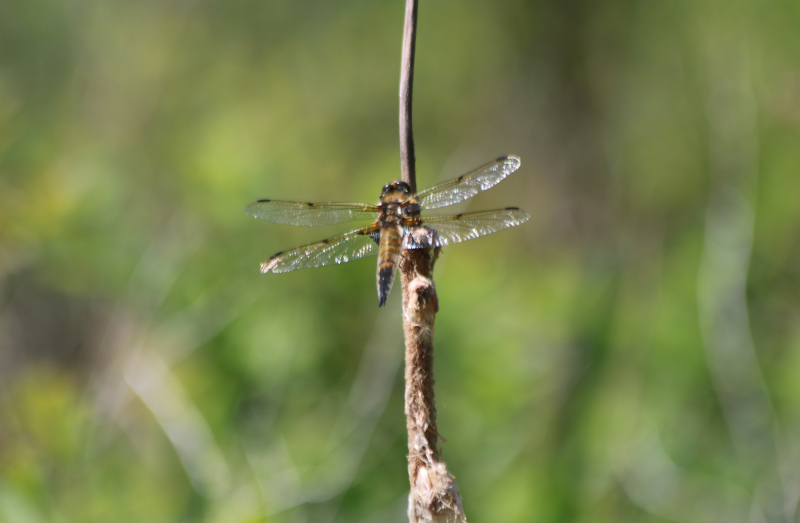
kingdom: Animalia
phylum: Arthropoda
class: Insecta
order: Odonata
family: Libellulidae
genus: Libellula
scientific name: Libellula quadrimaculata
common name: Four-spotted chaser
